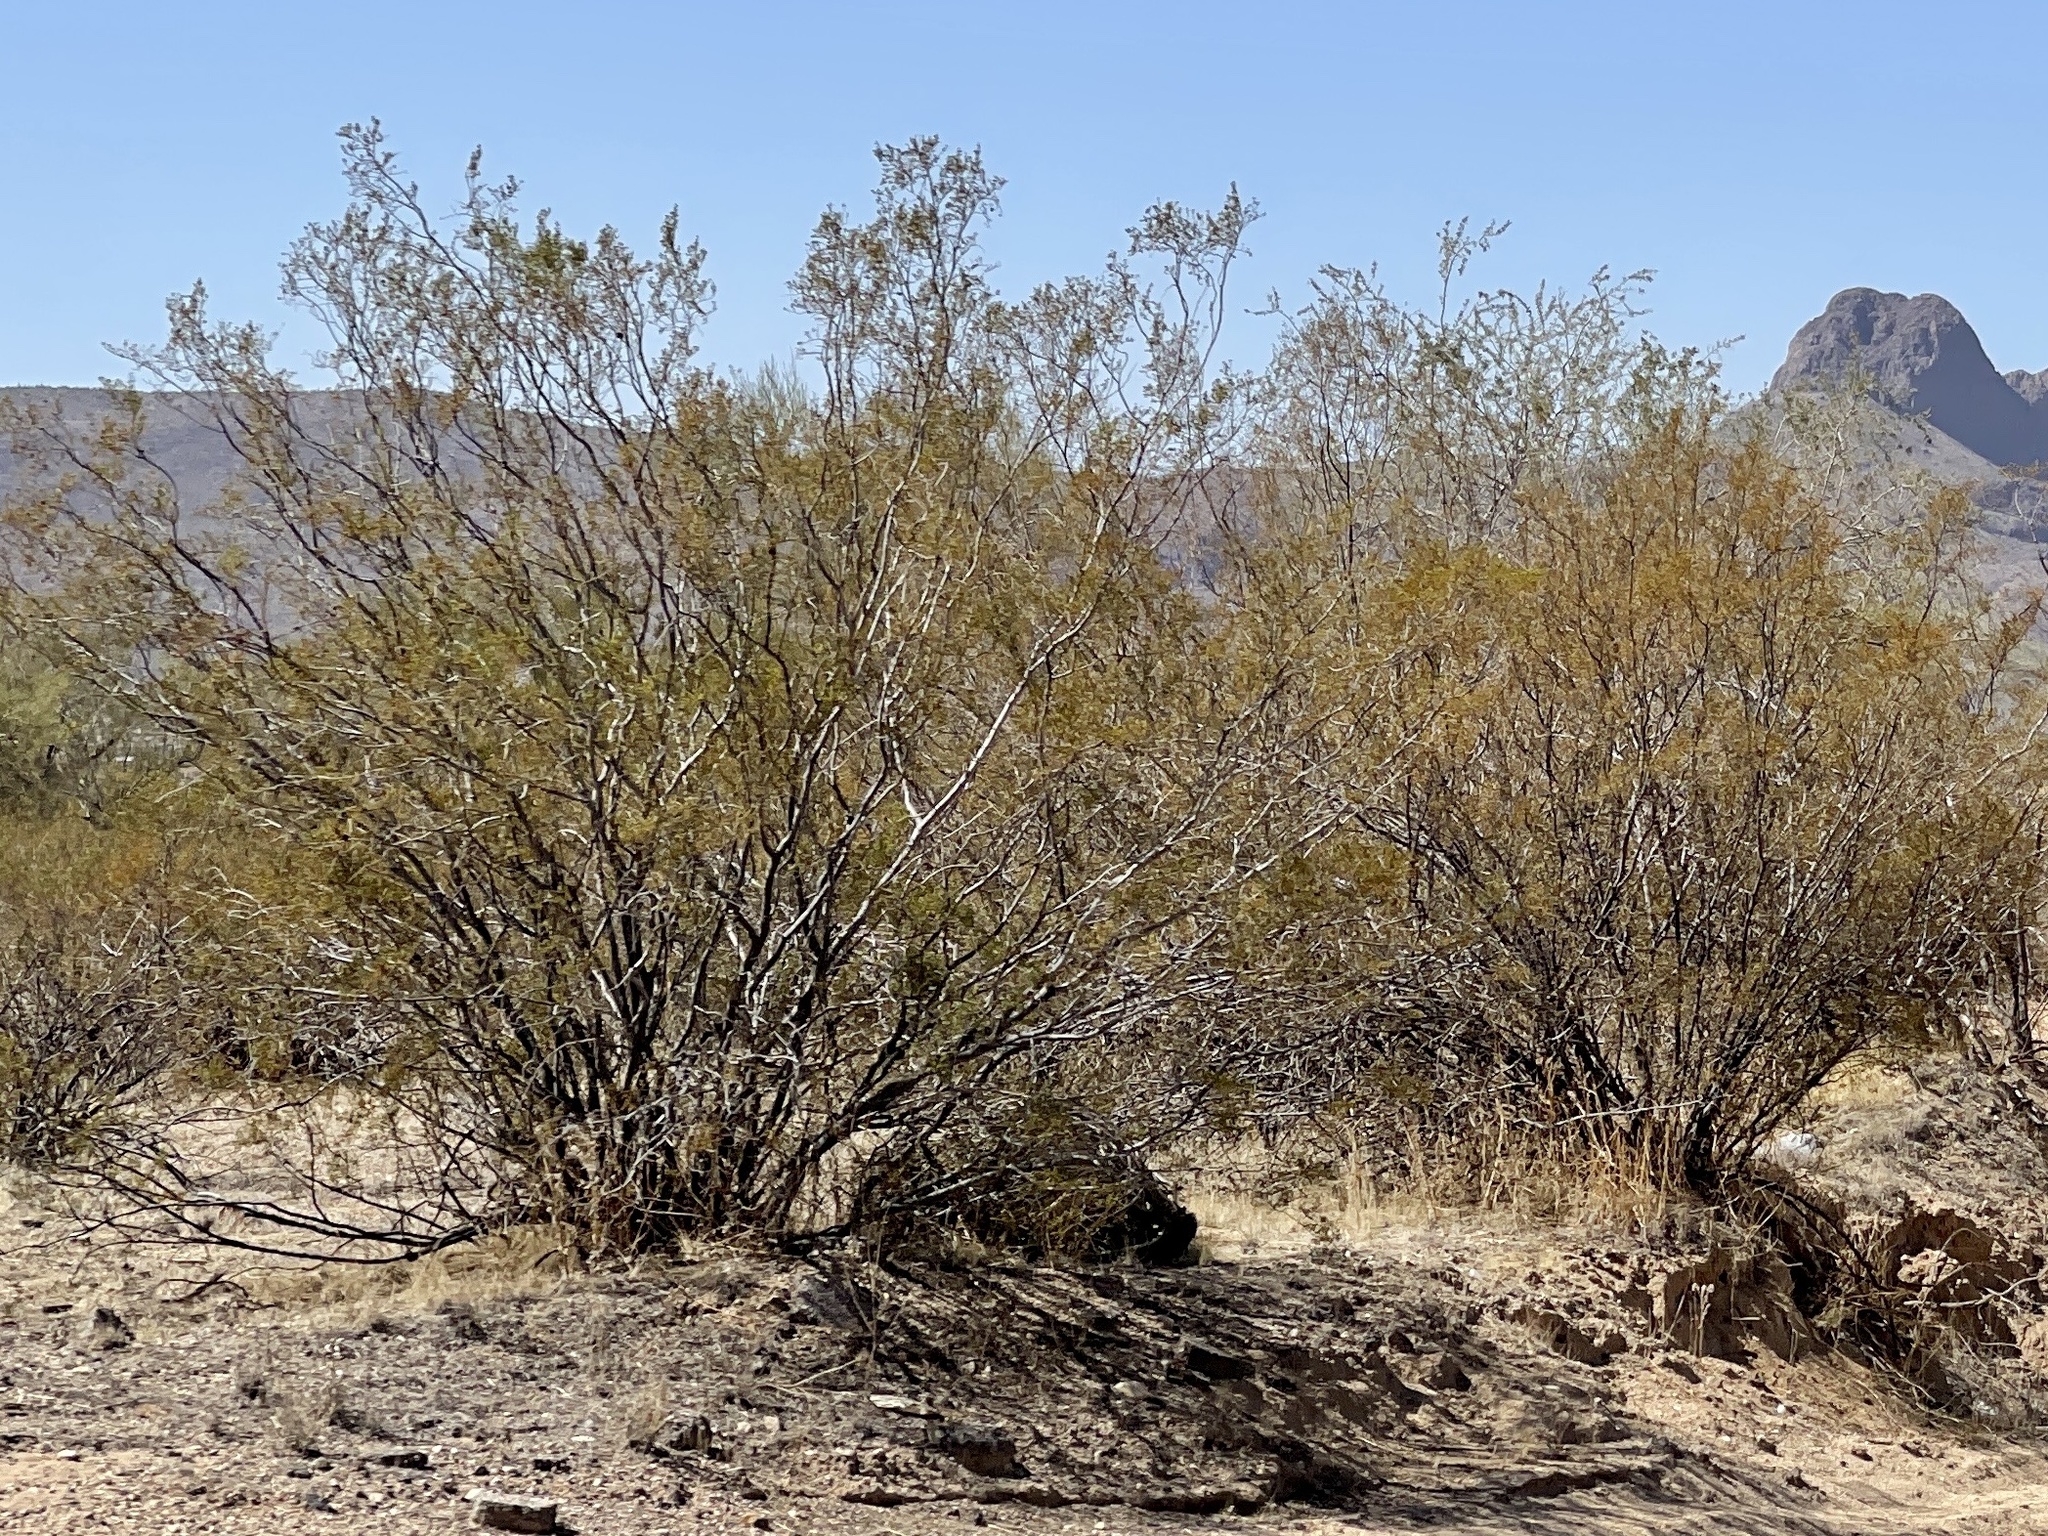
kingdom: Plantae
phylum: Tracheophyta
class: Magnoliopsida
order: Zygophyllales
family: Zygophyllaceae
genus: Larrea
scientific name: Larrea tridentata
